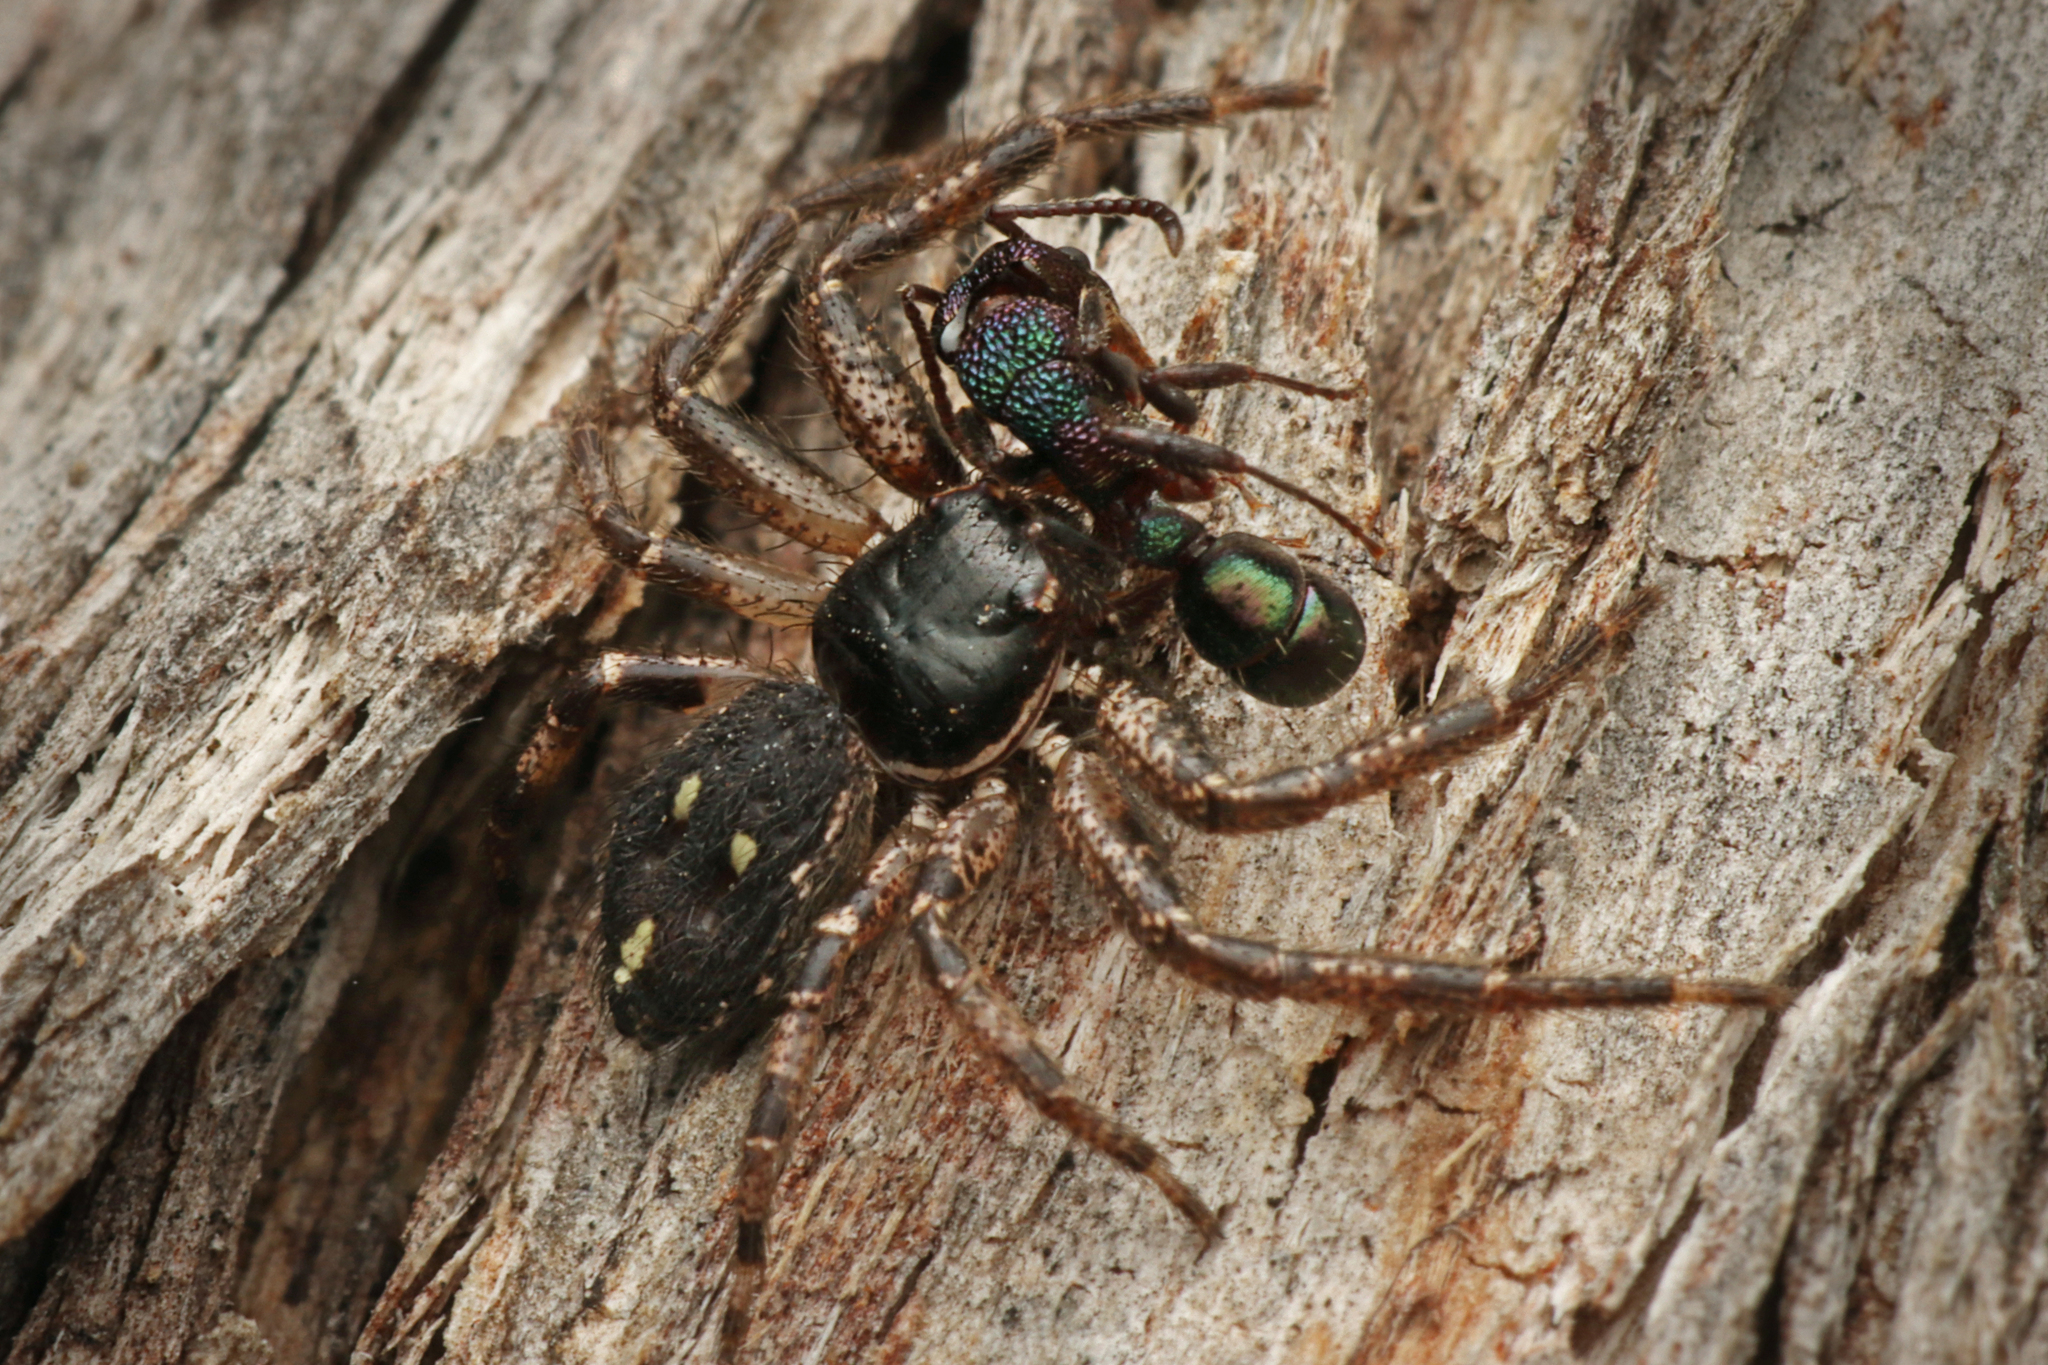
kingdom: Animalia
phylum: Arthropoda
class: Arachnida
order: Araneae
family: Thomisidae
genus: Tharpyna
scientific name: Tharpyna campestrata
